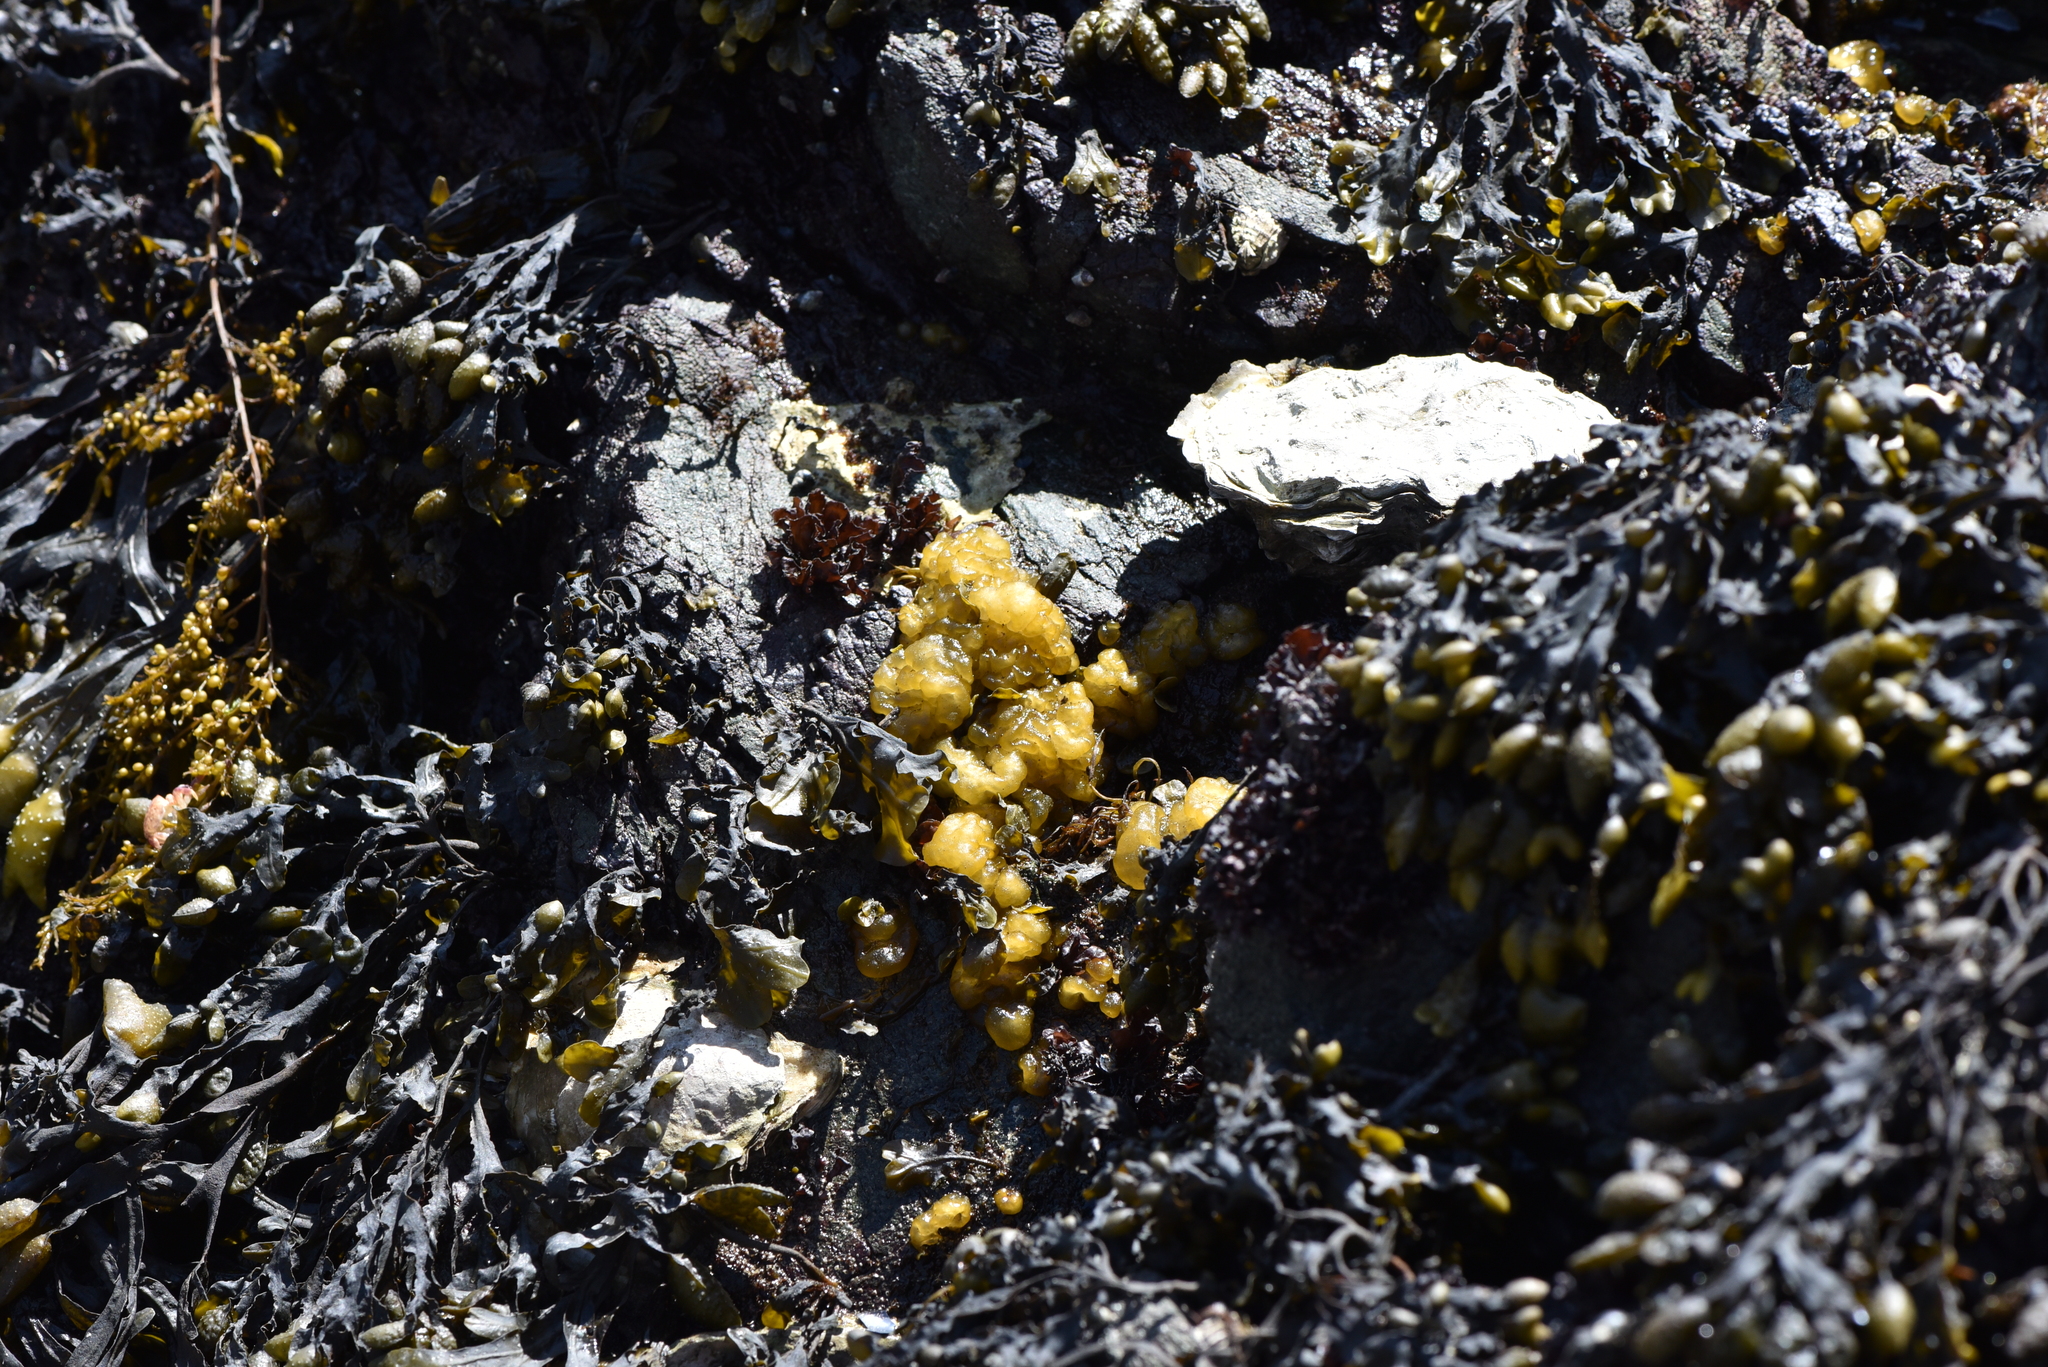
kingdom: Chromista
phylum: Ochrophyta
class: Phaeophyceae
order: Ectocarpales
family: Chordariaceae
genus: Leathesia
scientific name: Leathesia marina
